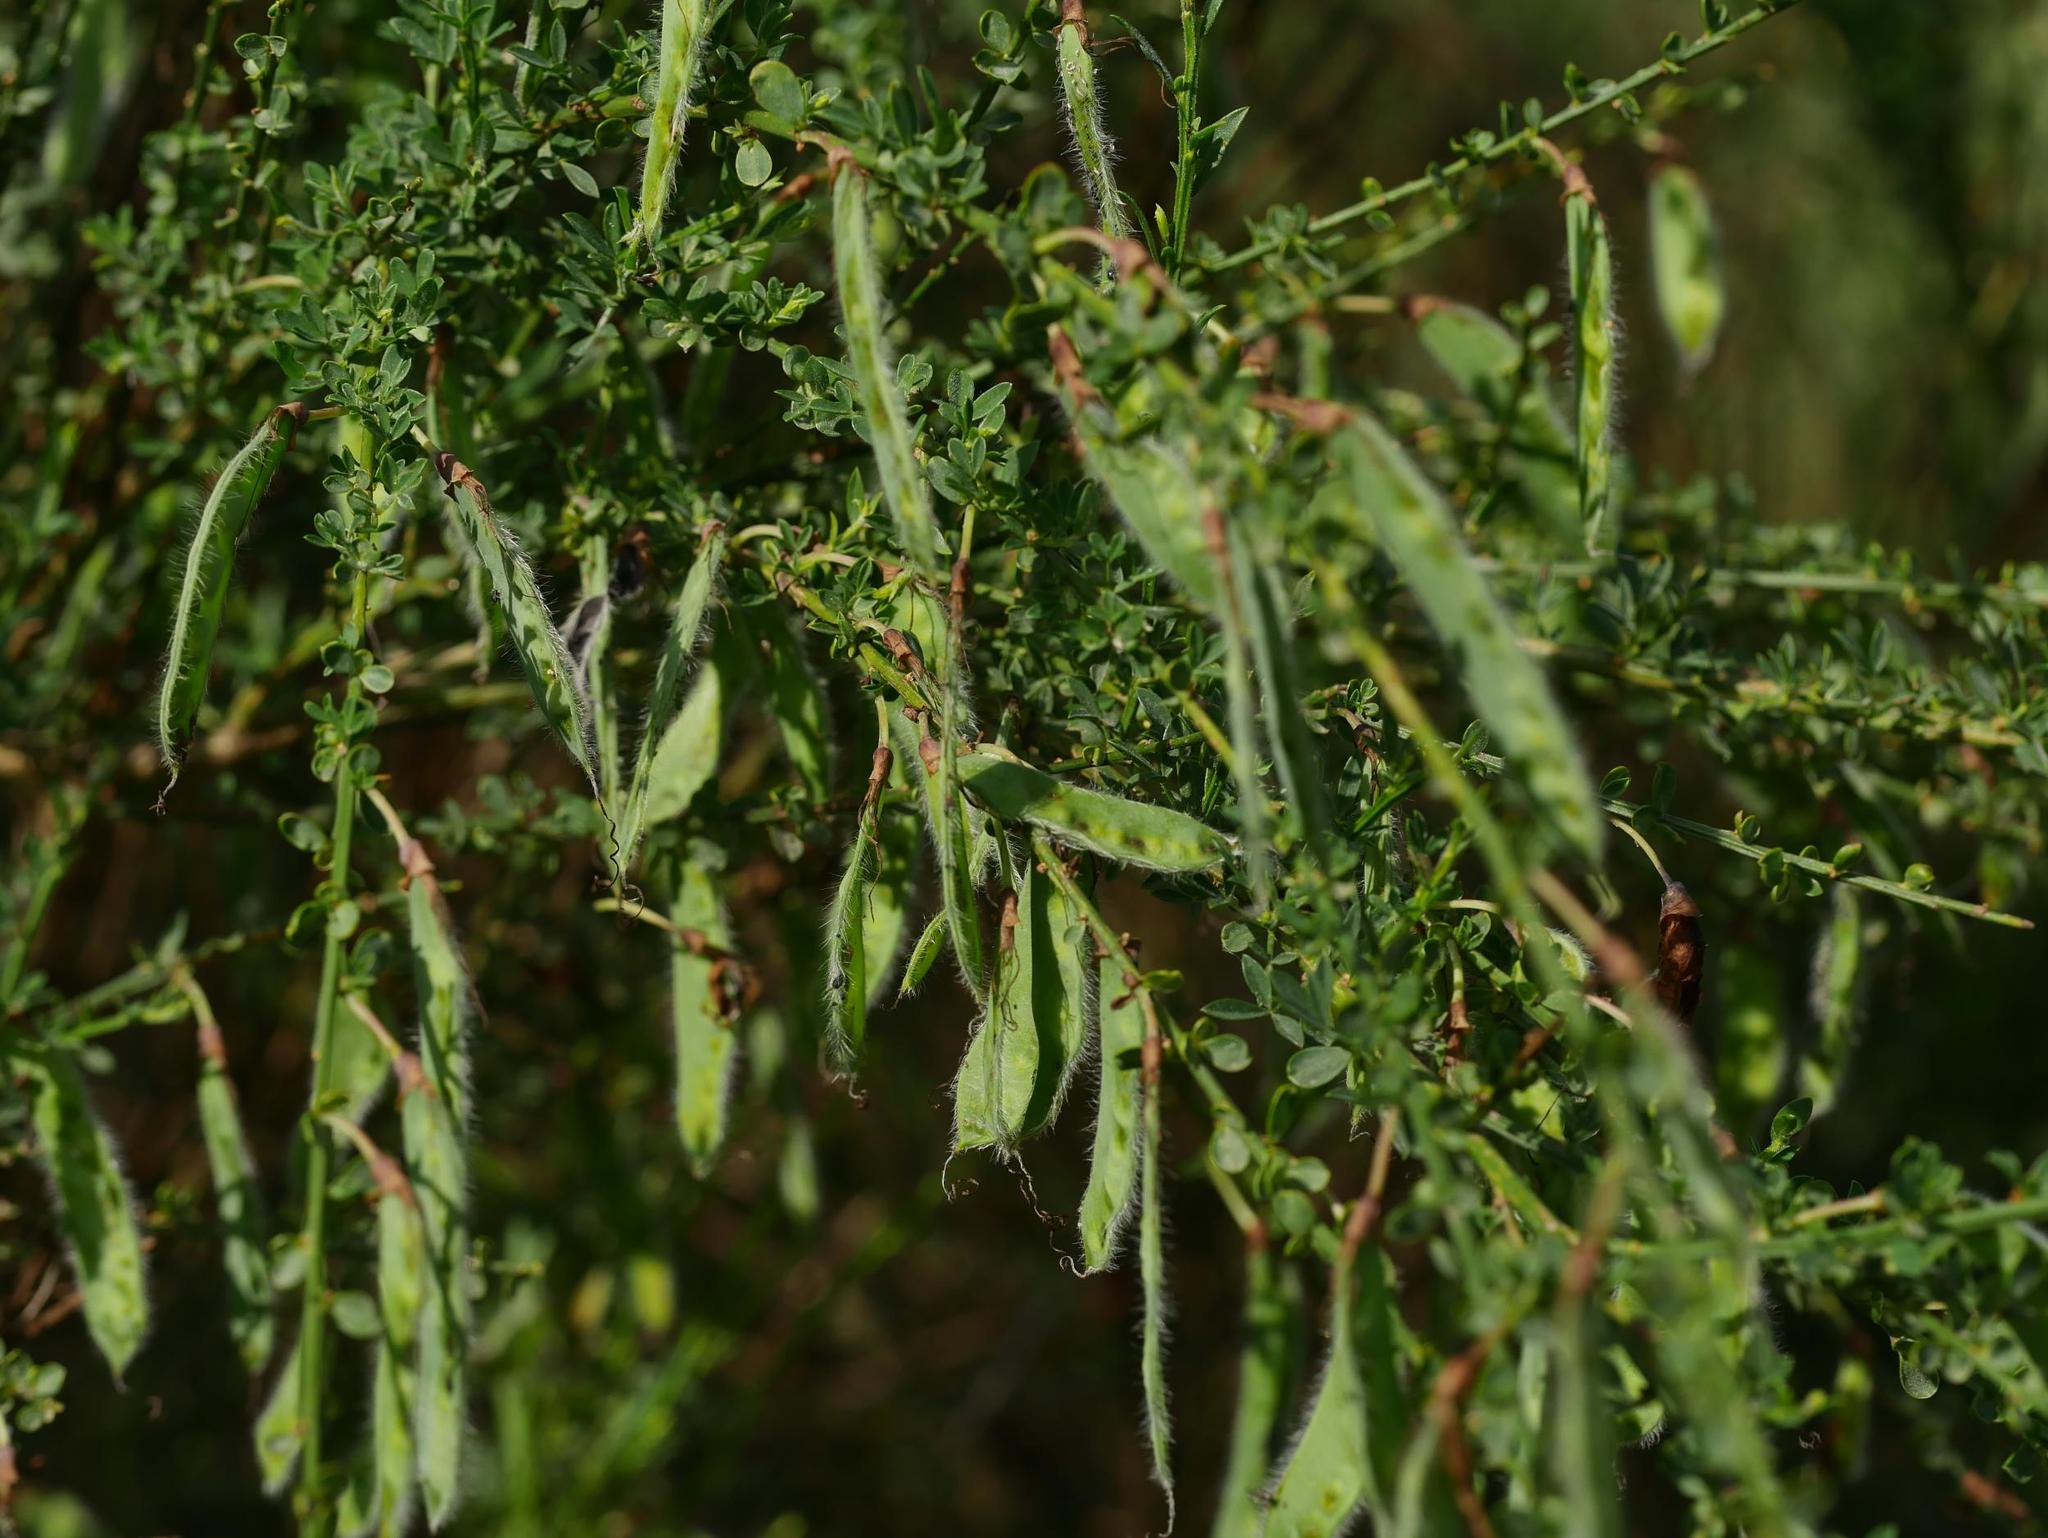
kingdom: Plantae
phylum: Tracheophyta
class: Magnoliopsida
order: Fabales
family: Fabaceae
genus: Cytisus
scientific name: Cytisus scoparius
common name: Scotch broom
